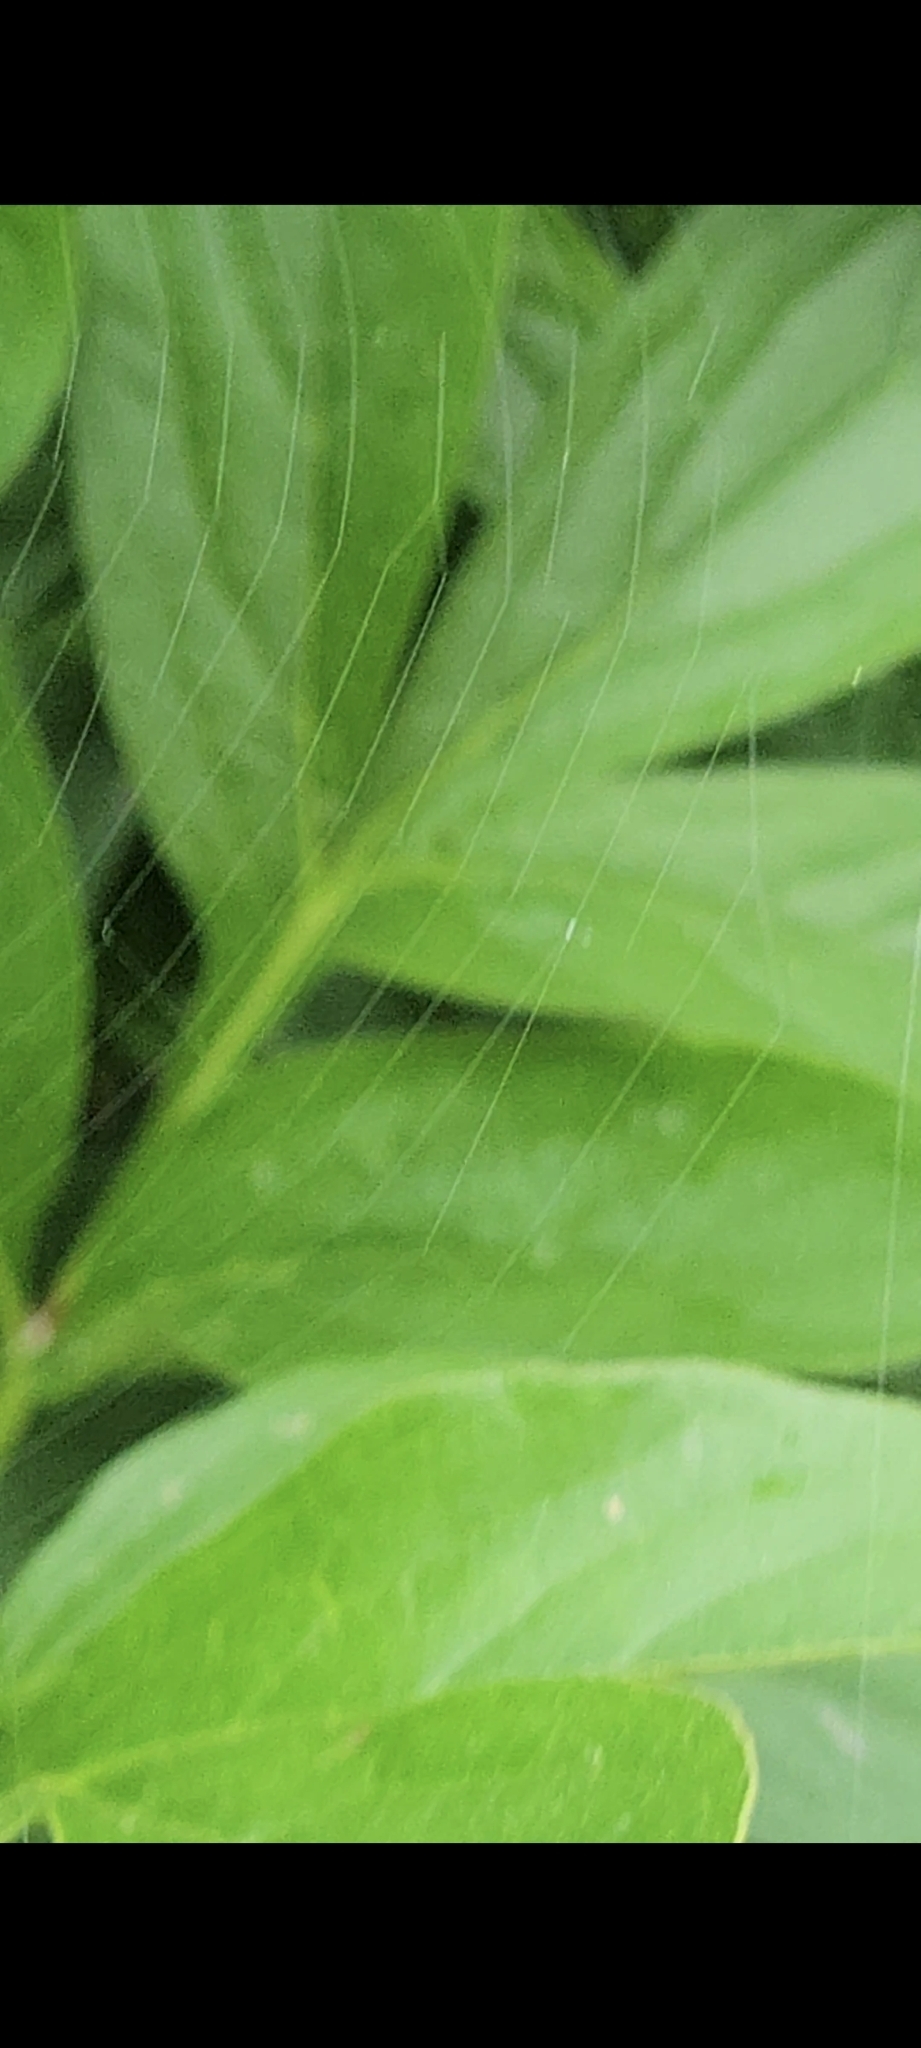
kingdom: Animalia
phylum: Arthropoda
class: Arachnida
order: Araneae
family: Araneidae
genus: Araniella
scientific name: Araniella displicata
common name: Sixspotted orb weaver
